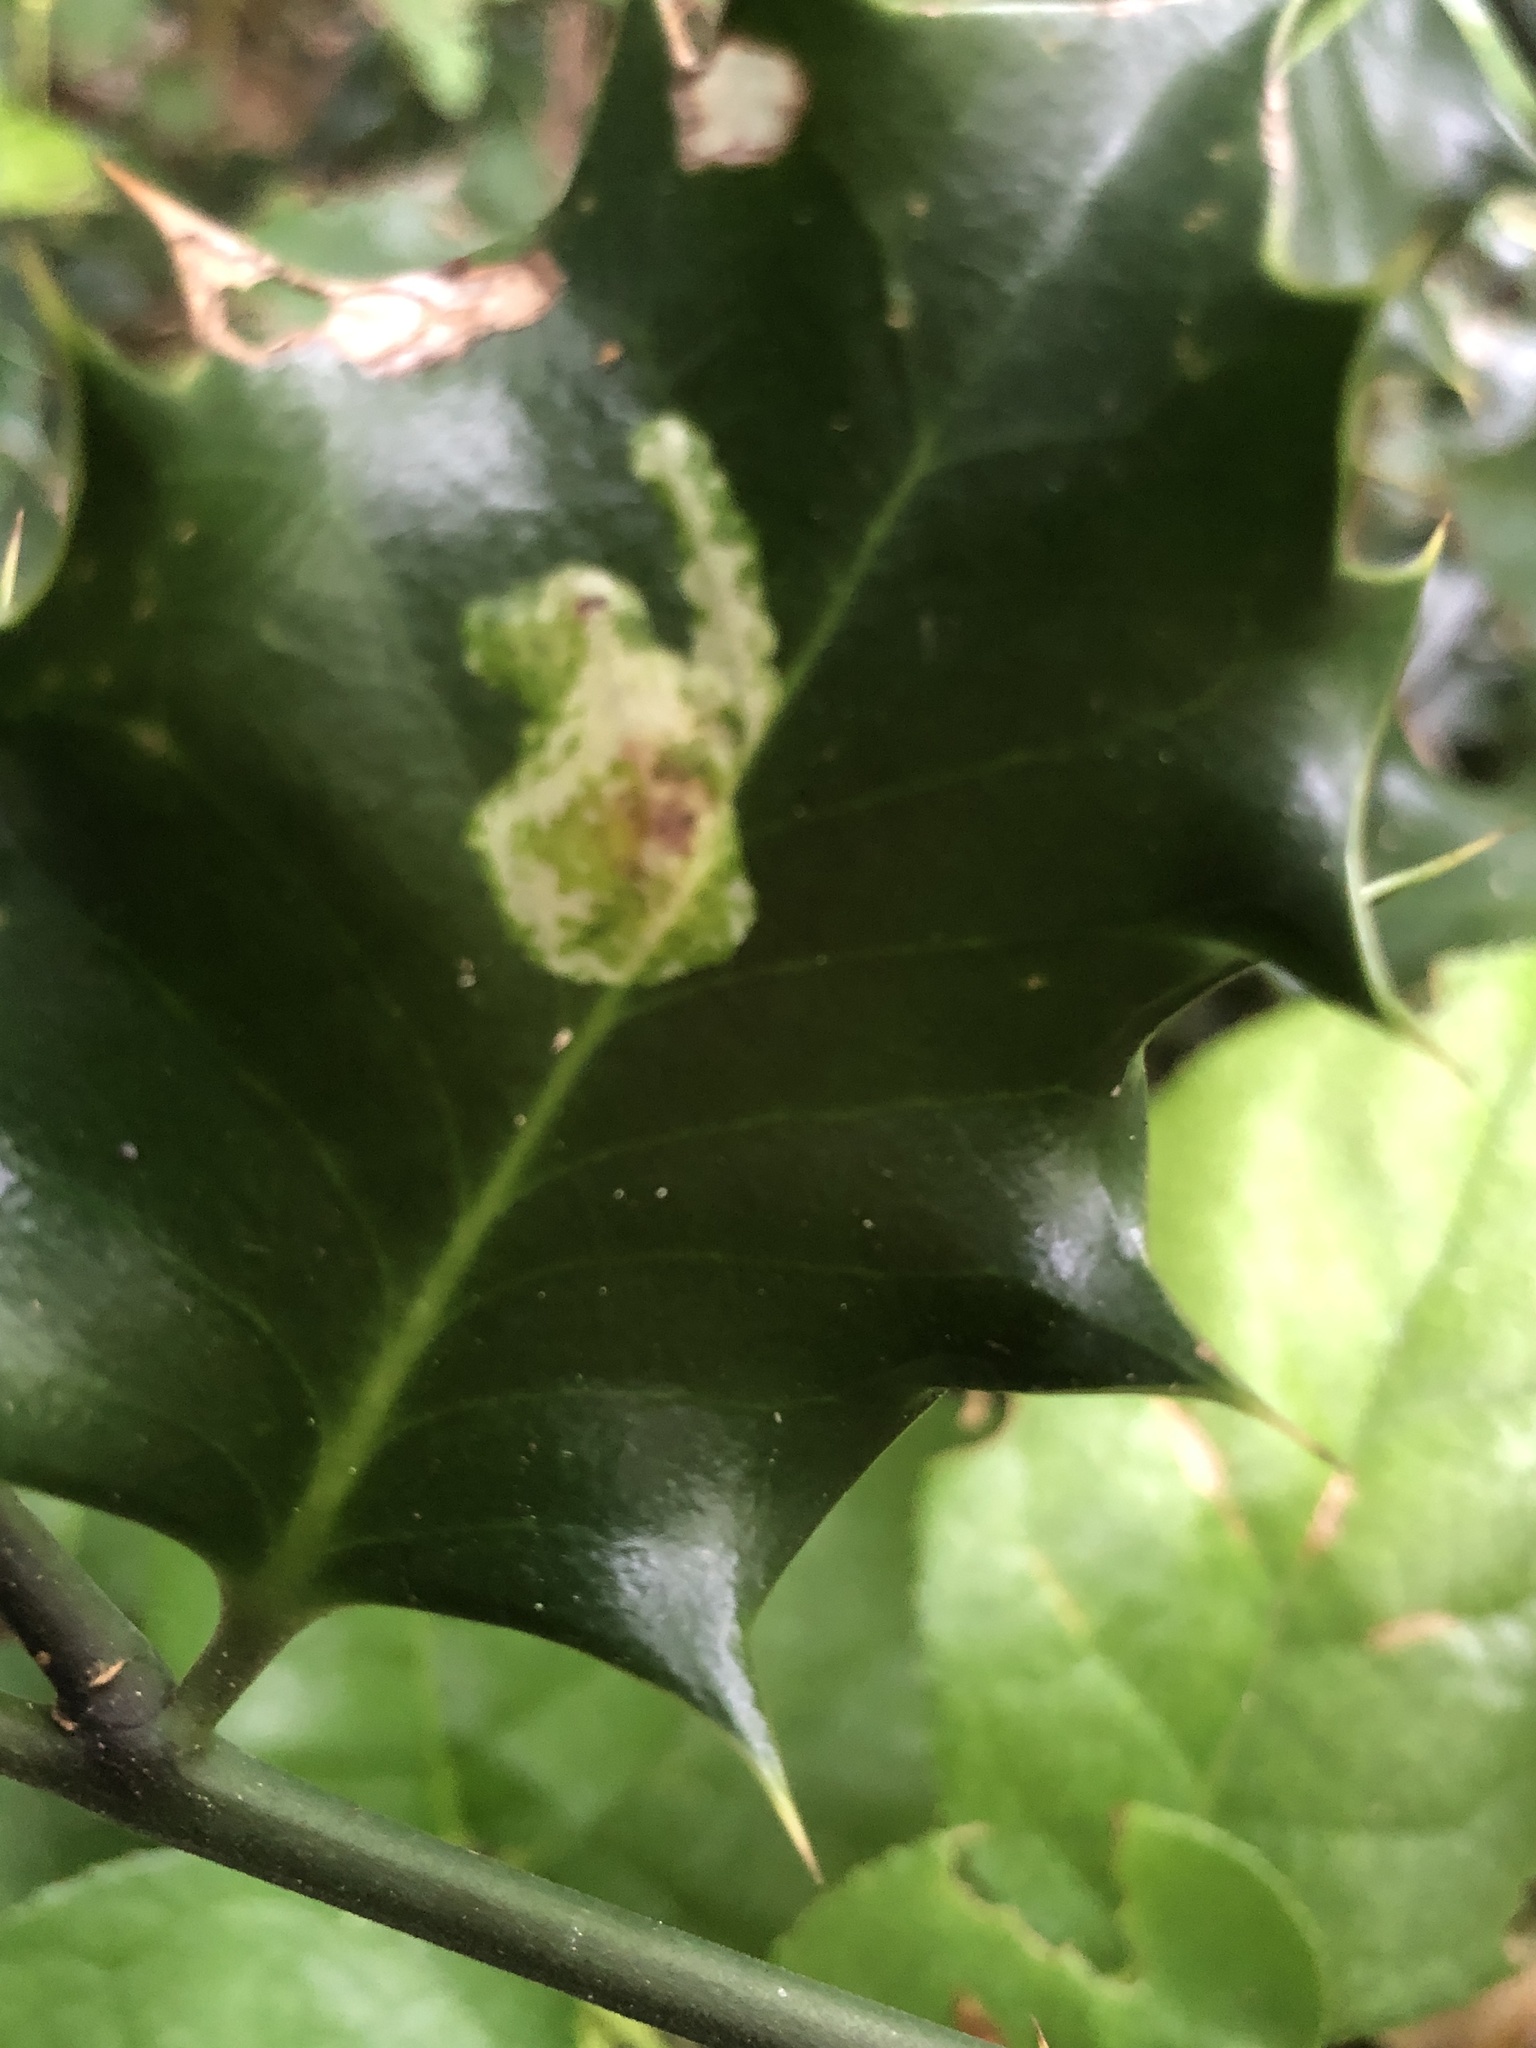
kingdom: Animalia
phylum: Arthropoda
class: Insecta
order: Diptera
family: Agromyzidae
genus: Phytomyza
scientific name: Phytomyza ilicis
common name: Holly leafminer
